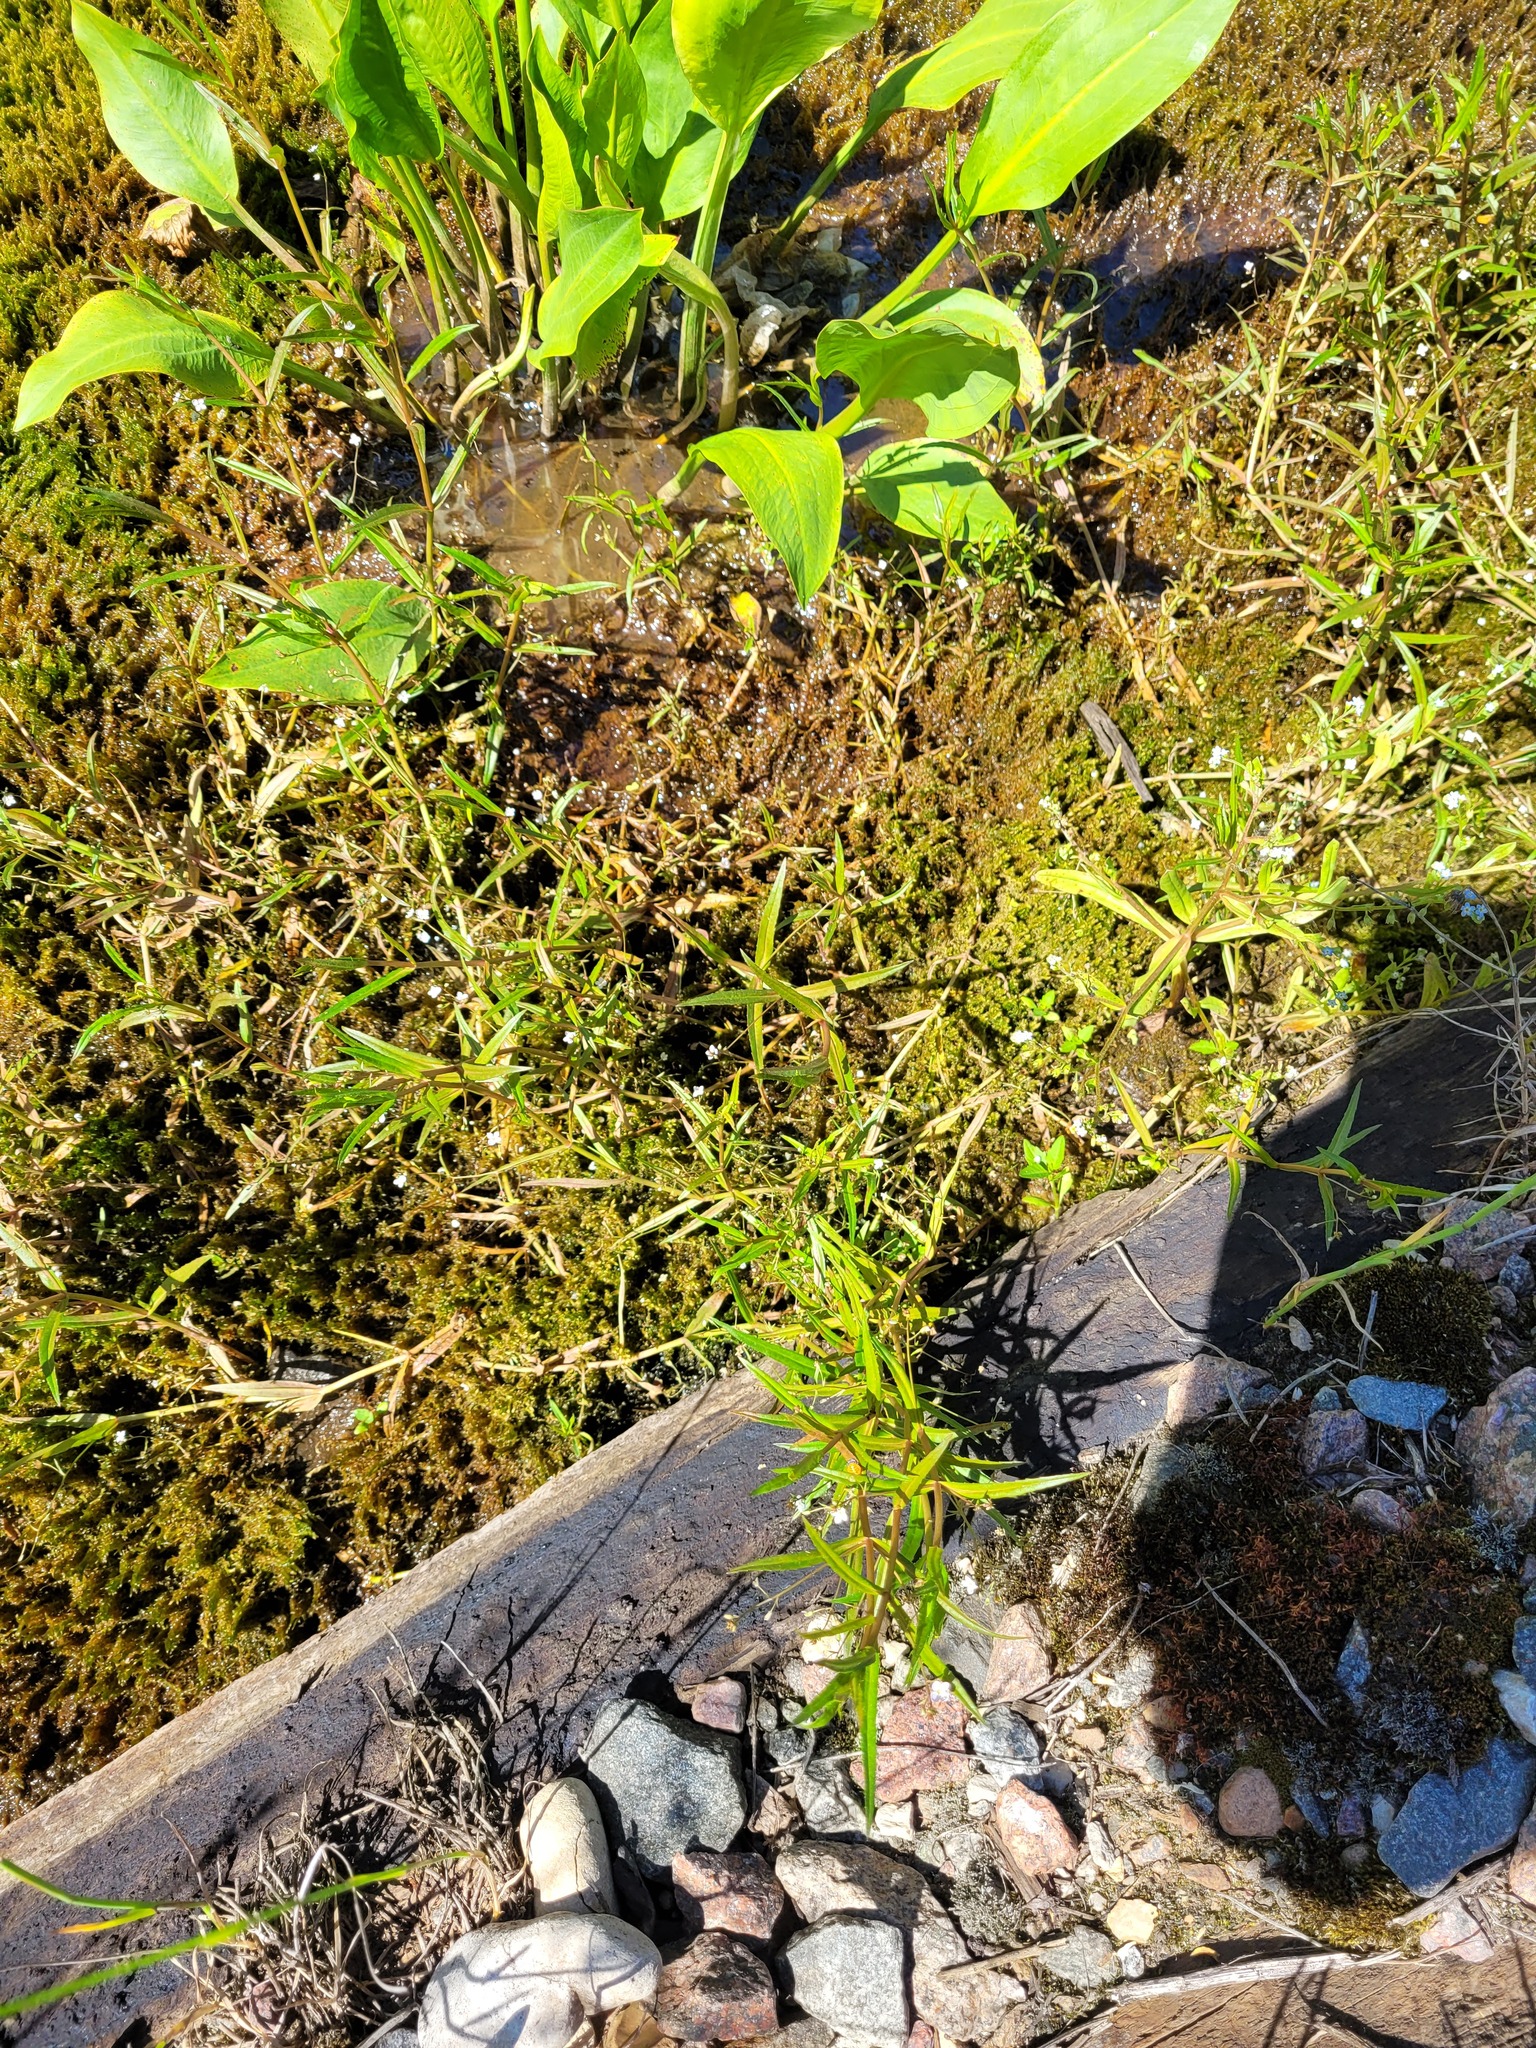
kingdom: Plantae
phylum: Tracheophyta
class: Magnoliopsida
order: Lamiales
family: Plantaginaceae
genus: Veronica
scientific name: Veronica scutellata
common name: Marsh speedwell
